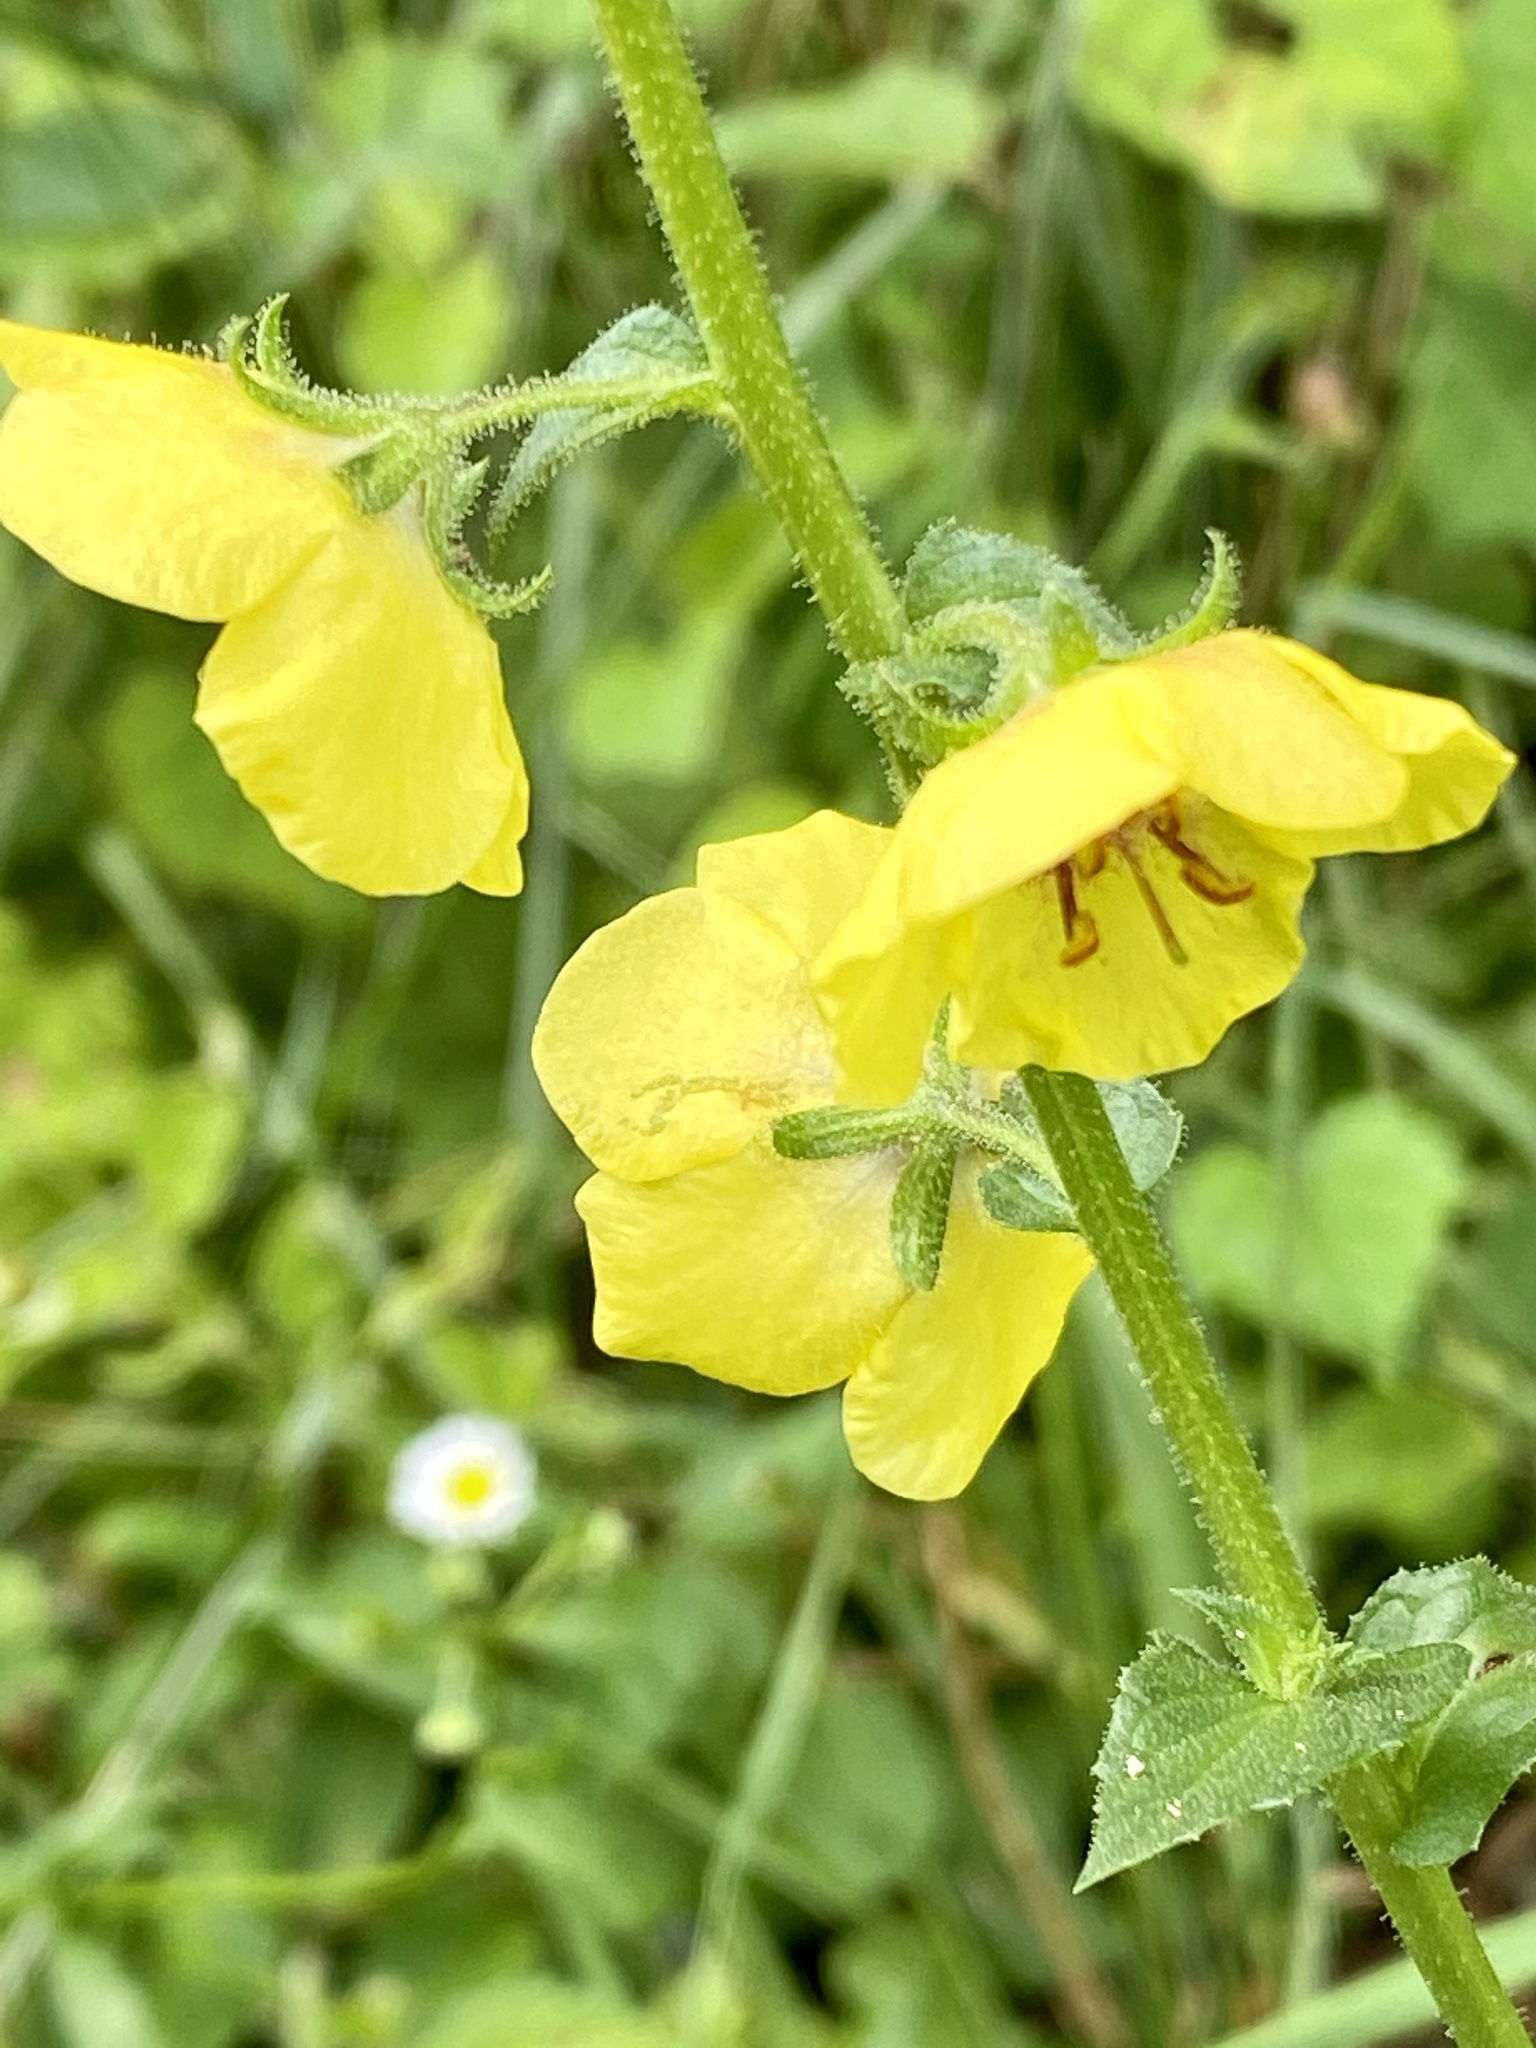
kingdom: Plantae
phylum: Tracheophyta
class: Magnoliopsida
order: Lamiales
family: Scrophulariaceae
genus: Verbascum
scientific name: Verbascum blattaria
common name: Moth mullein
